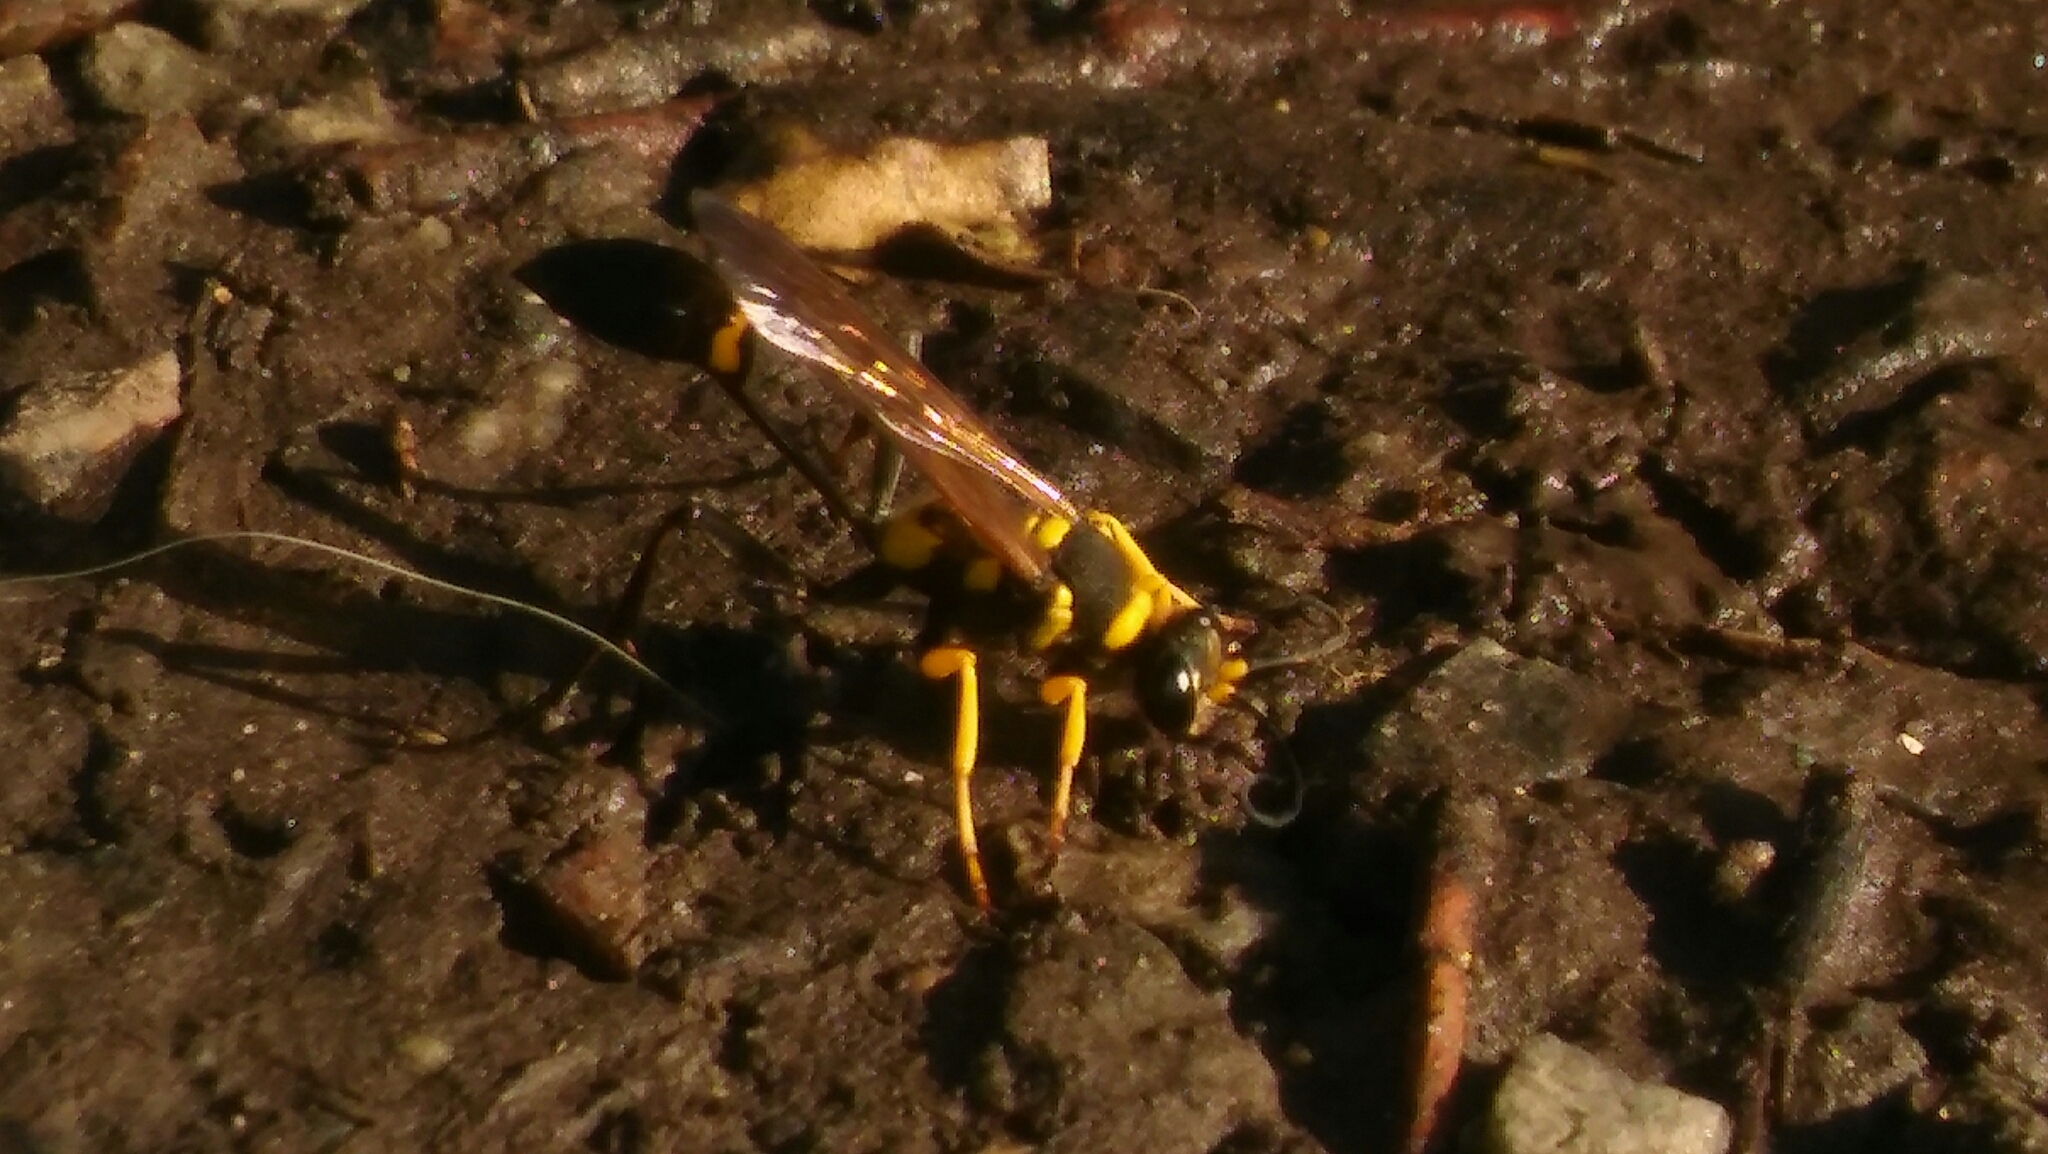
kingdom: Animalia
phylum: Arthropoda
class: Insecta
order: Hymenoptera
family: Sphecidae
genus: Sceliphron
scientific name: Sceliphron asiaticum
